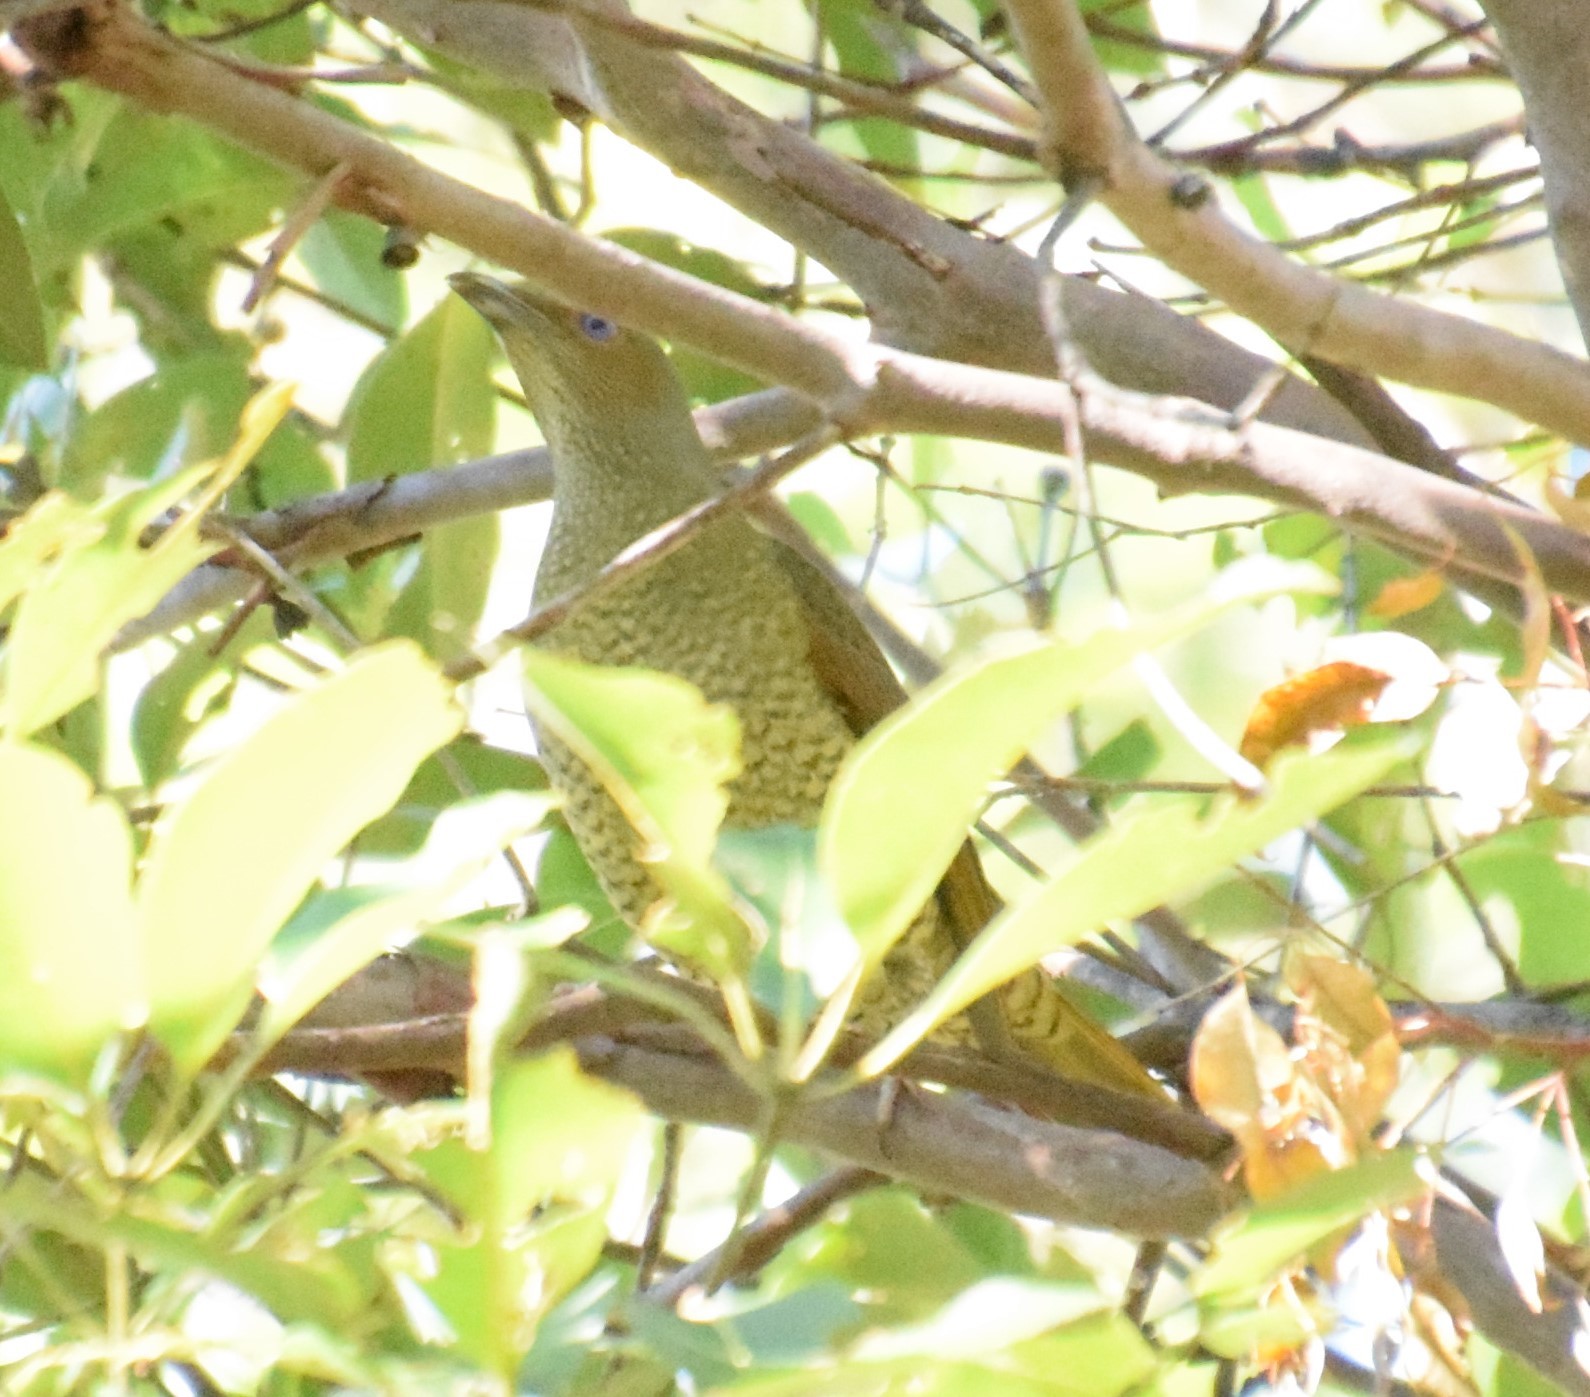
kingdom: Animalia
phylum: Chordata
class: Aves
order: Passeriformes
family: Ptilonorhynchidae
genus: Ptilonorhynchus
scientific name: Ptilonorhynchus violaceus
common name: Satin bowerbird
